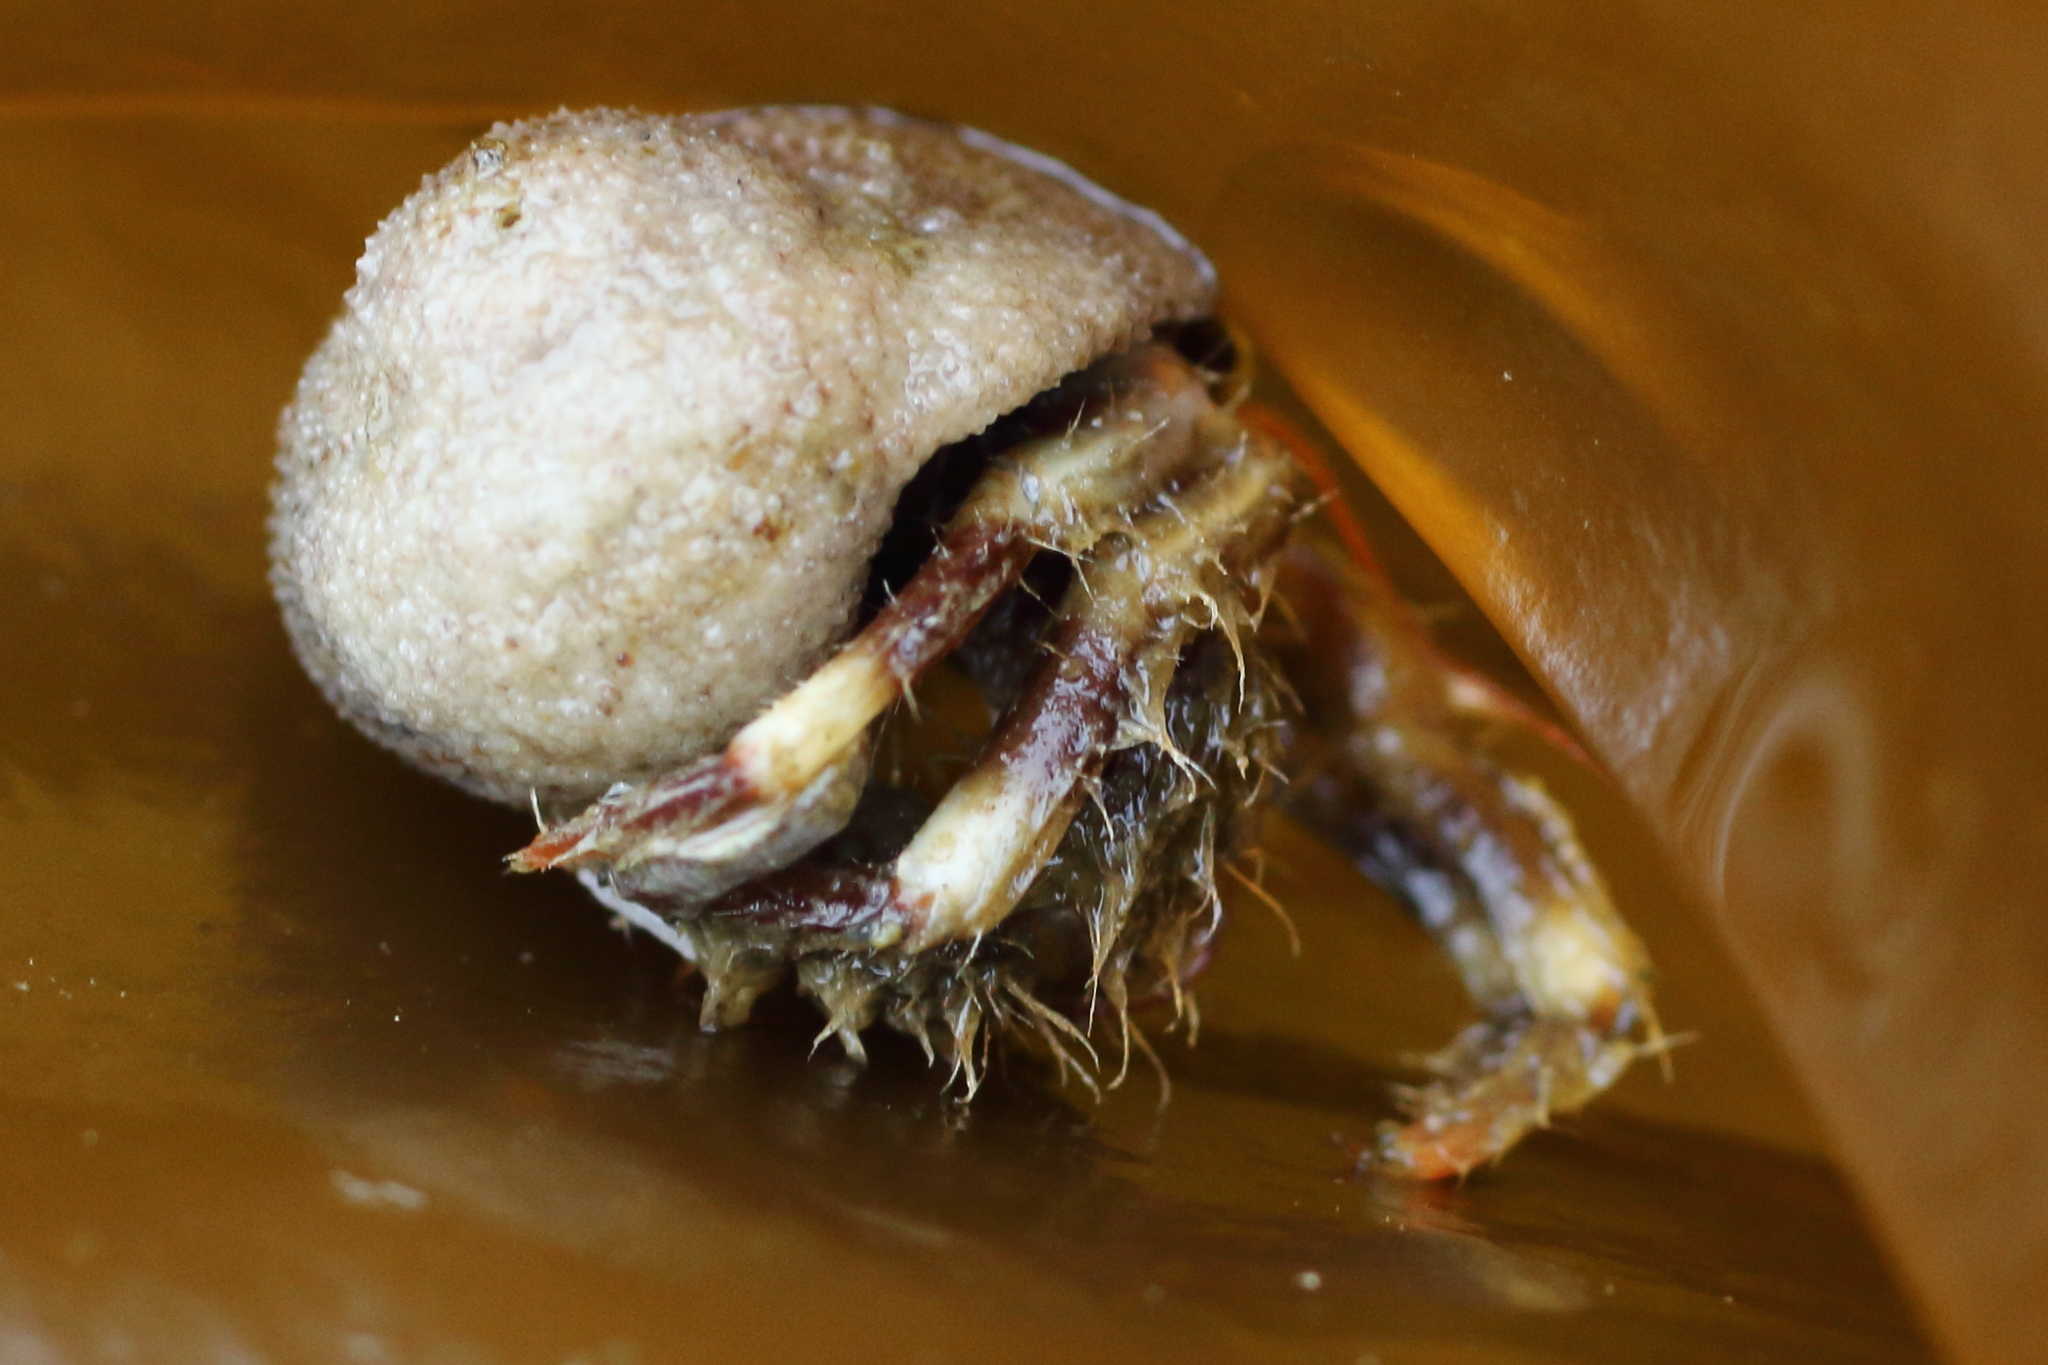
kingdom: Animalia
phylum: Arthropoda
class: Malacostraca
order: Decapoda
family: Paguridae
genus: Pagurus
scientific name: Pagurus caurinus
